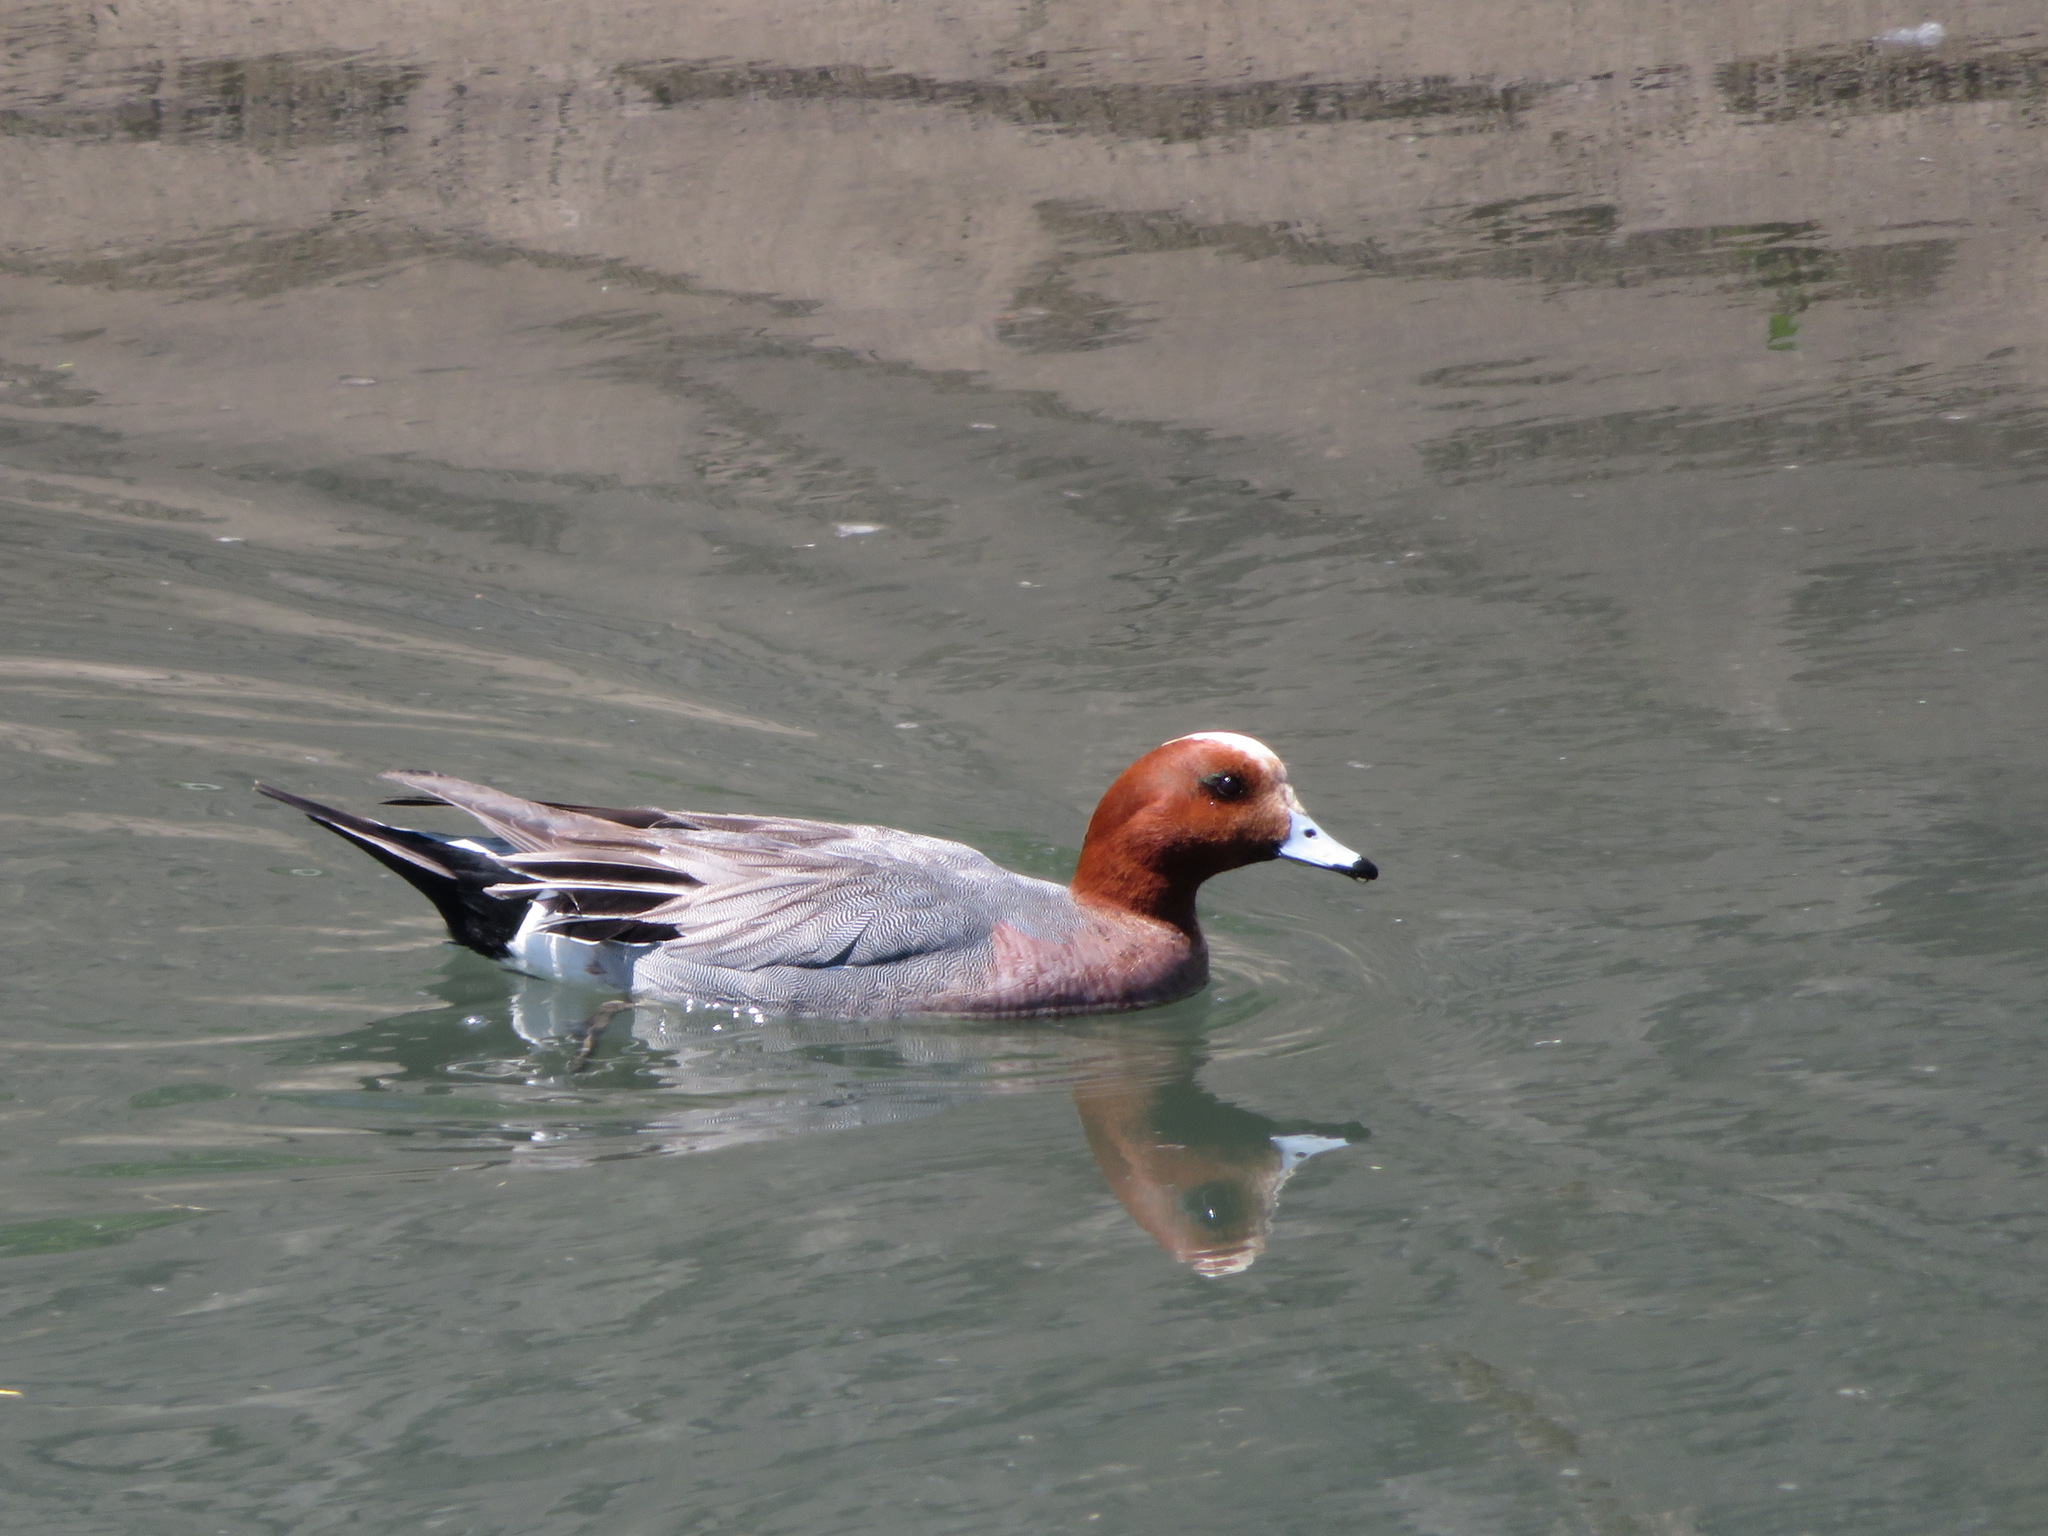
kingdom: Animalia
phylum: Chordata
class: Aves
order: Anseriformes
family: Anatidae
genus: Mareca
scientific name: Mareca penelope
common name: Eurasian wigeon
